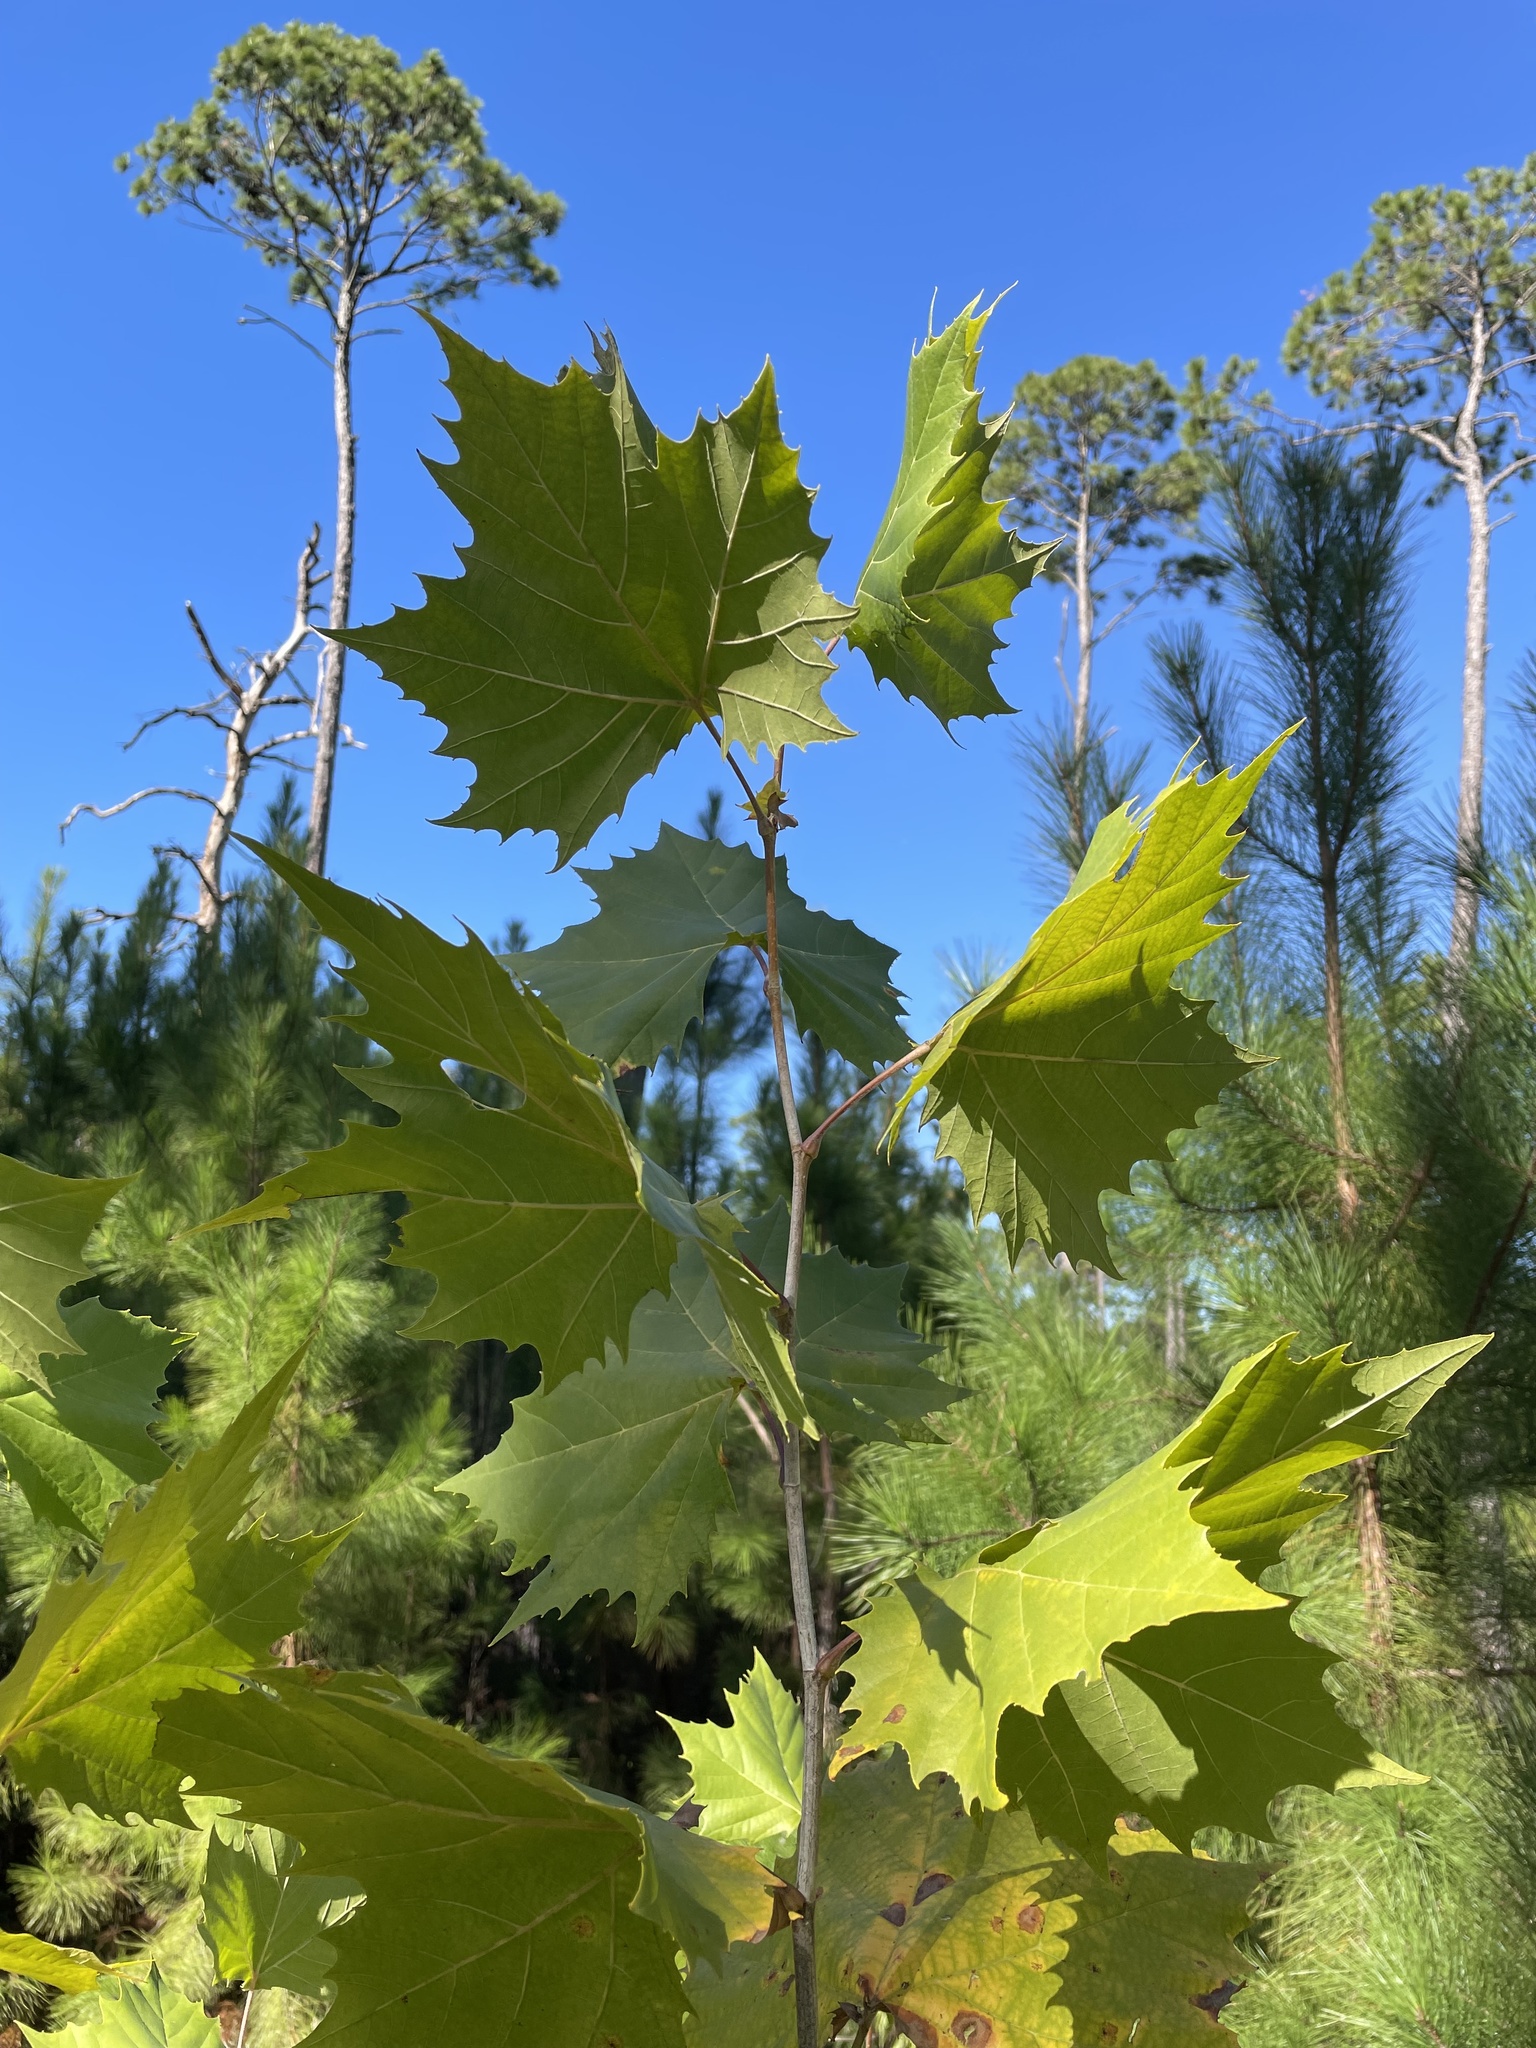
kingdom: Plantae
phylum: Tracheophyta
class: Magnoliopsida
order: Proteales
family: Platanaceae
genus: Platanus
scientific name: Platanus occidentalis
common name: American sycamore
